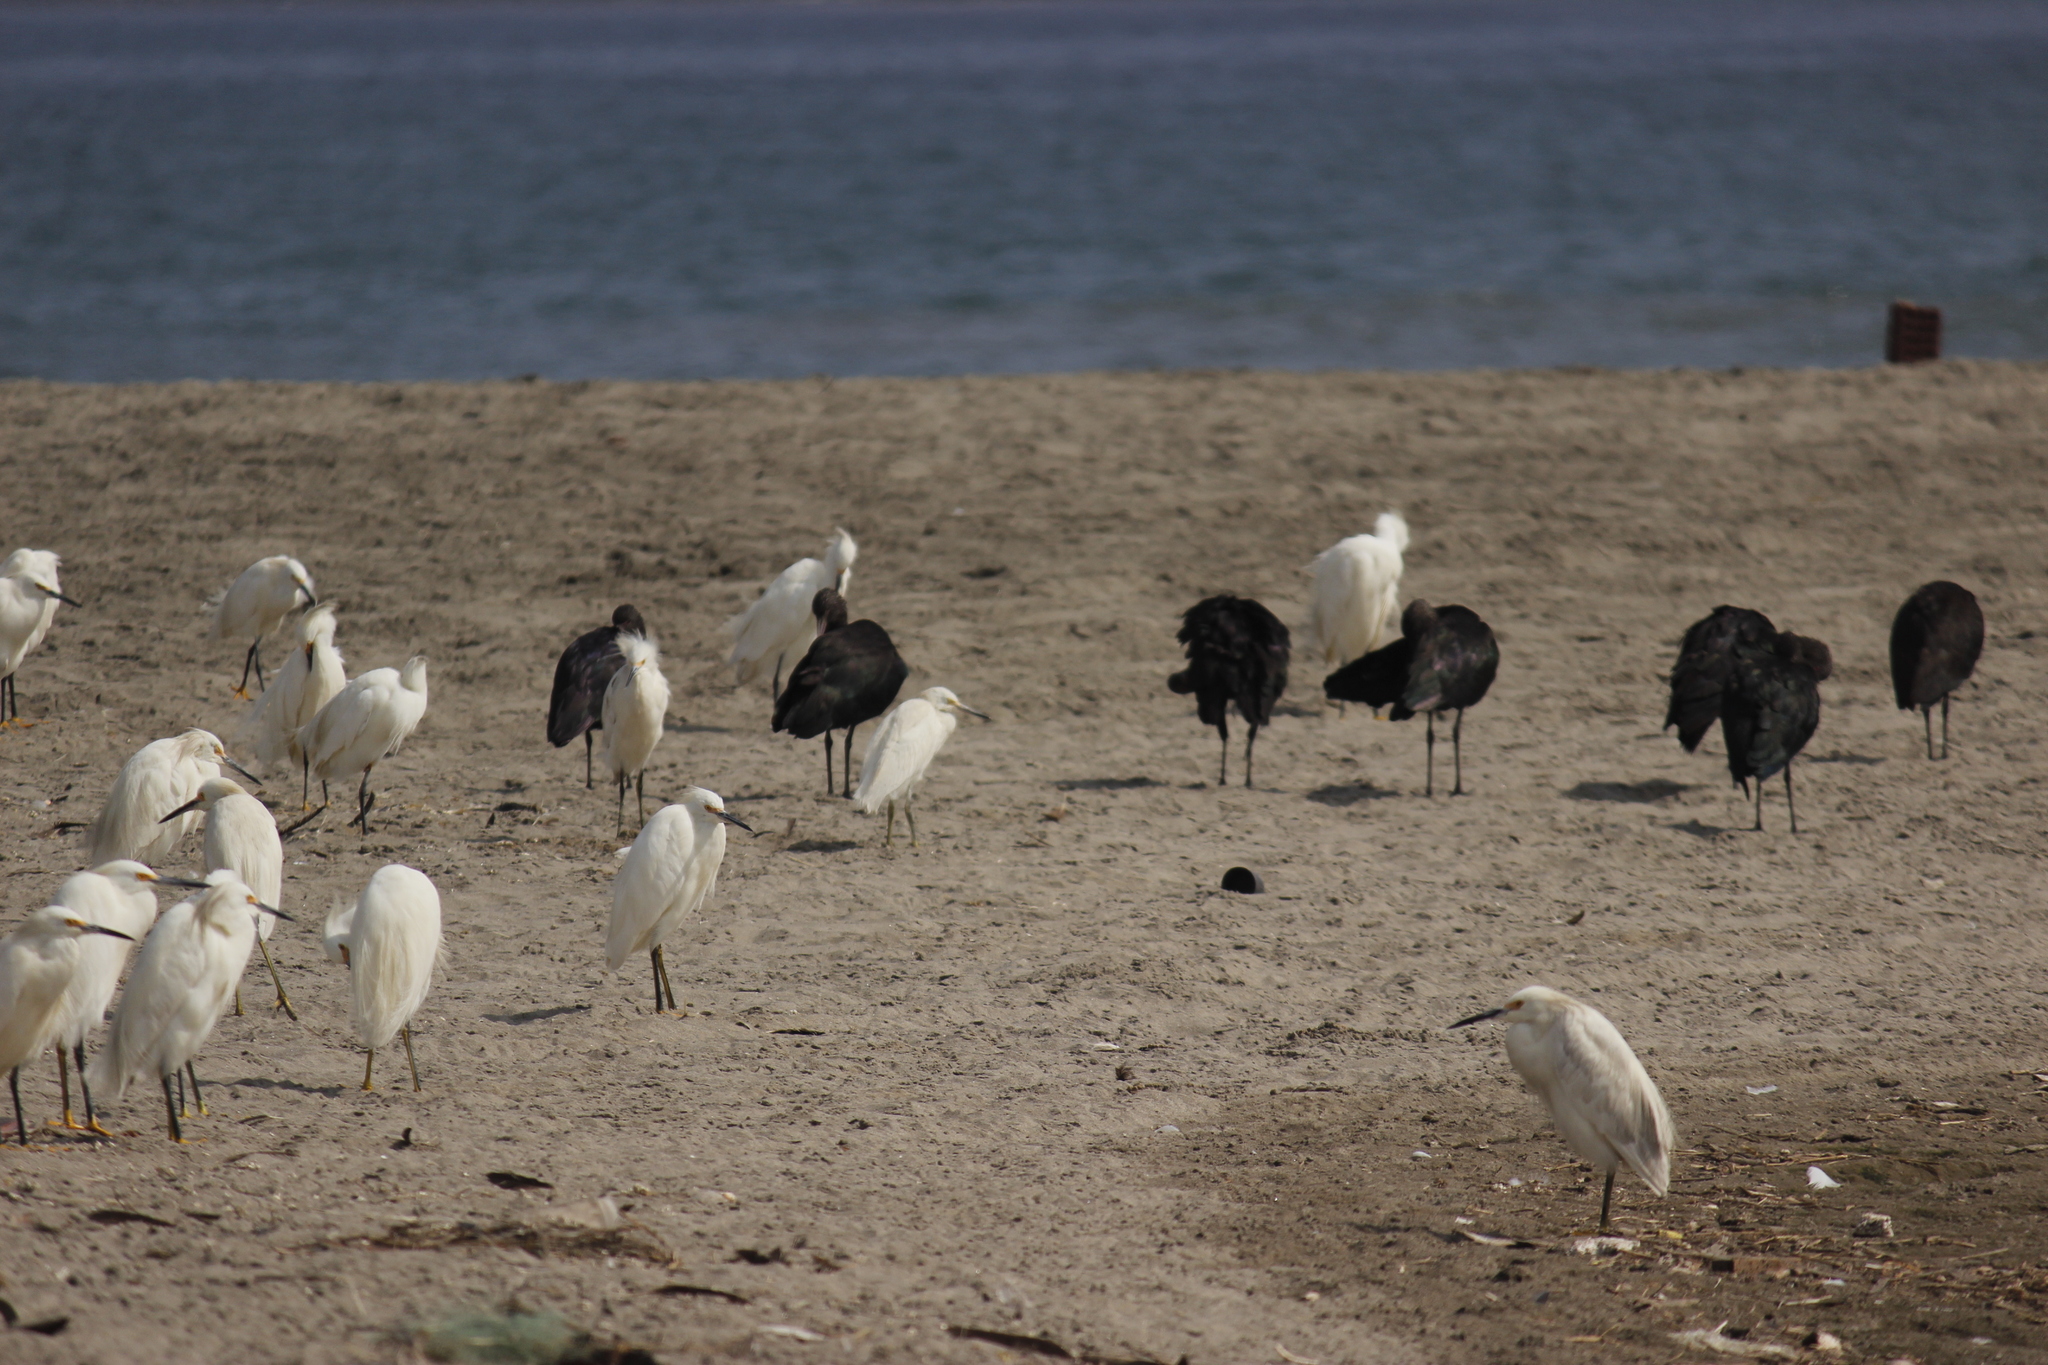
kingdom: Animalia
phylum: Chordata
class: Aves
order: Pelecaniformes
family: Threskiornithidae
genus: Plegadis
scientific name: Plegadis ridgwayi
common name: Puna ibis
